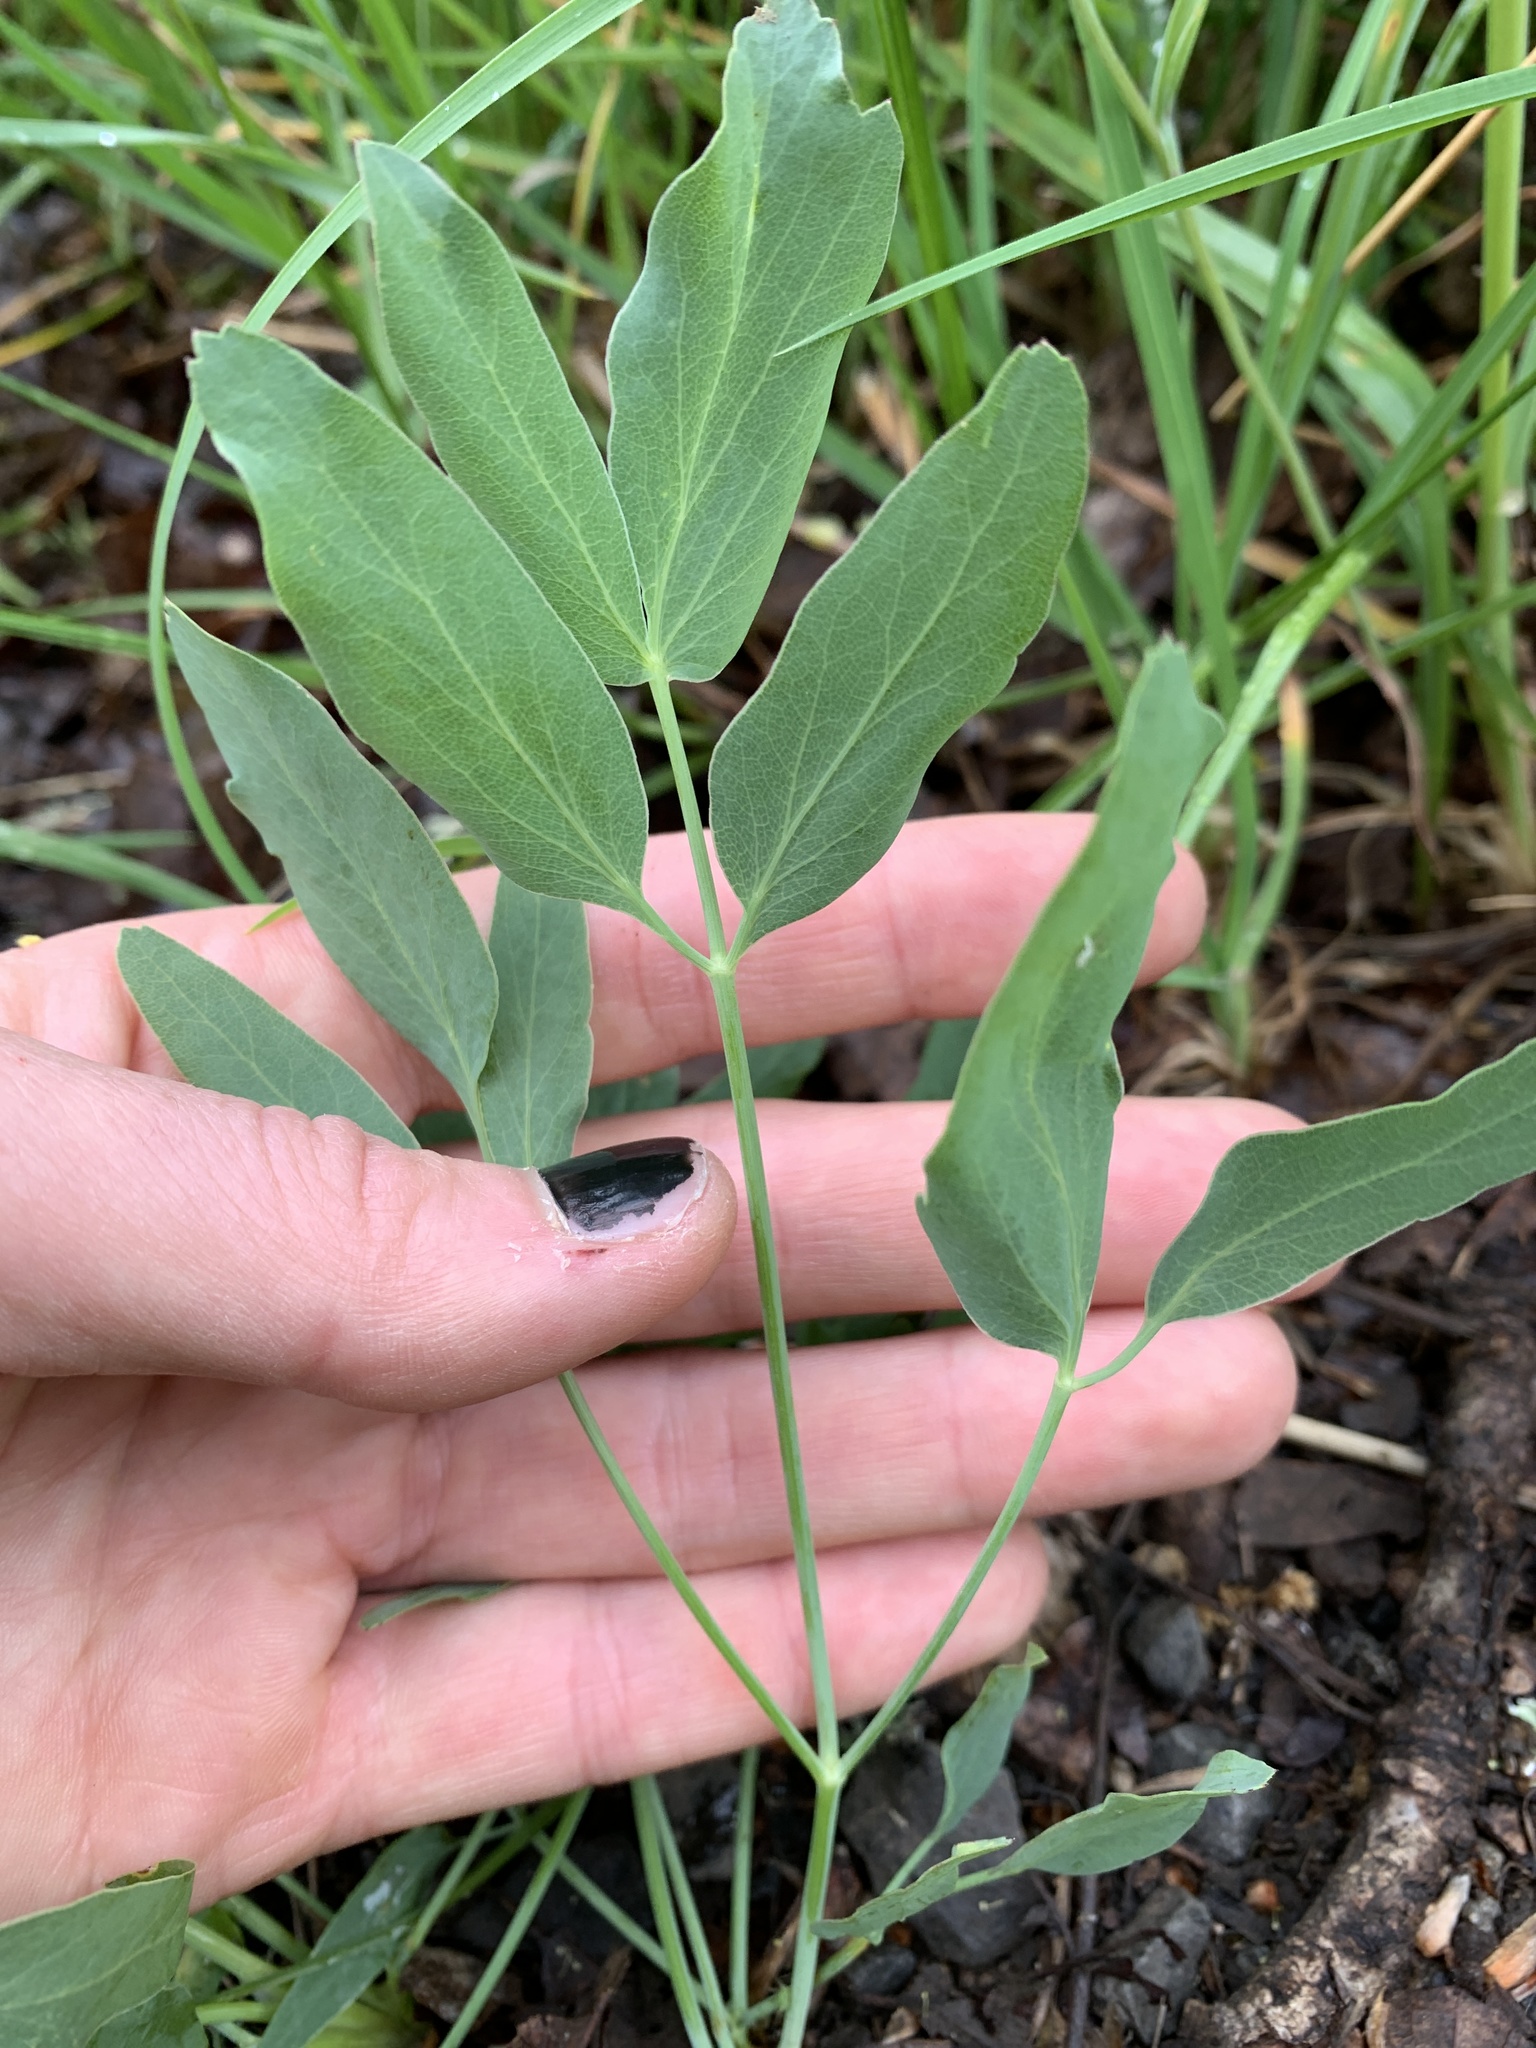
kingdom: Plantae
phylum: Tracheophyta
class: Magnoliopsida
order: Apiales
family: Apiaceae
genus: Lomatium
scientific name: Lomatium nudicaule
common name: Pestle lomatium
